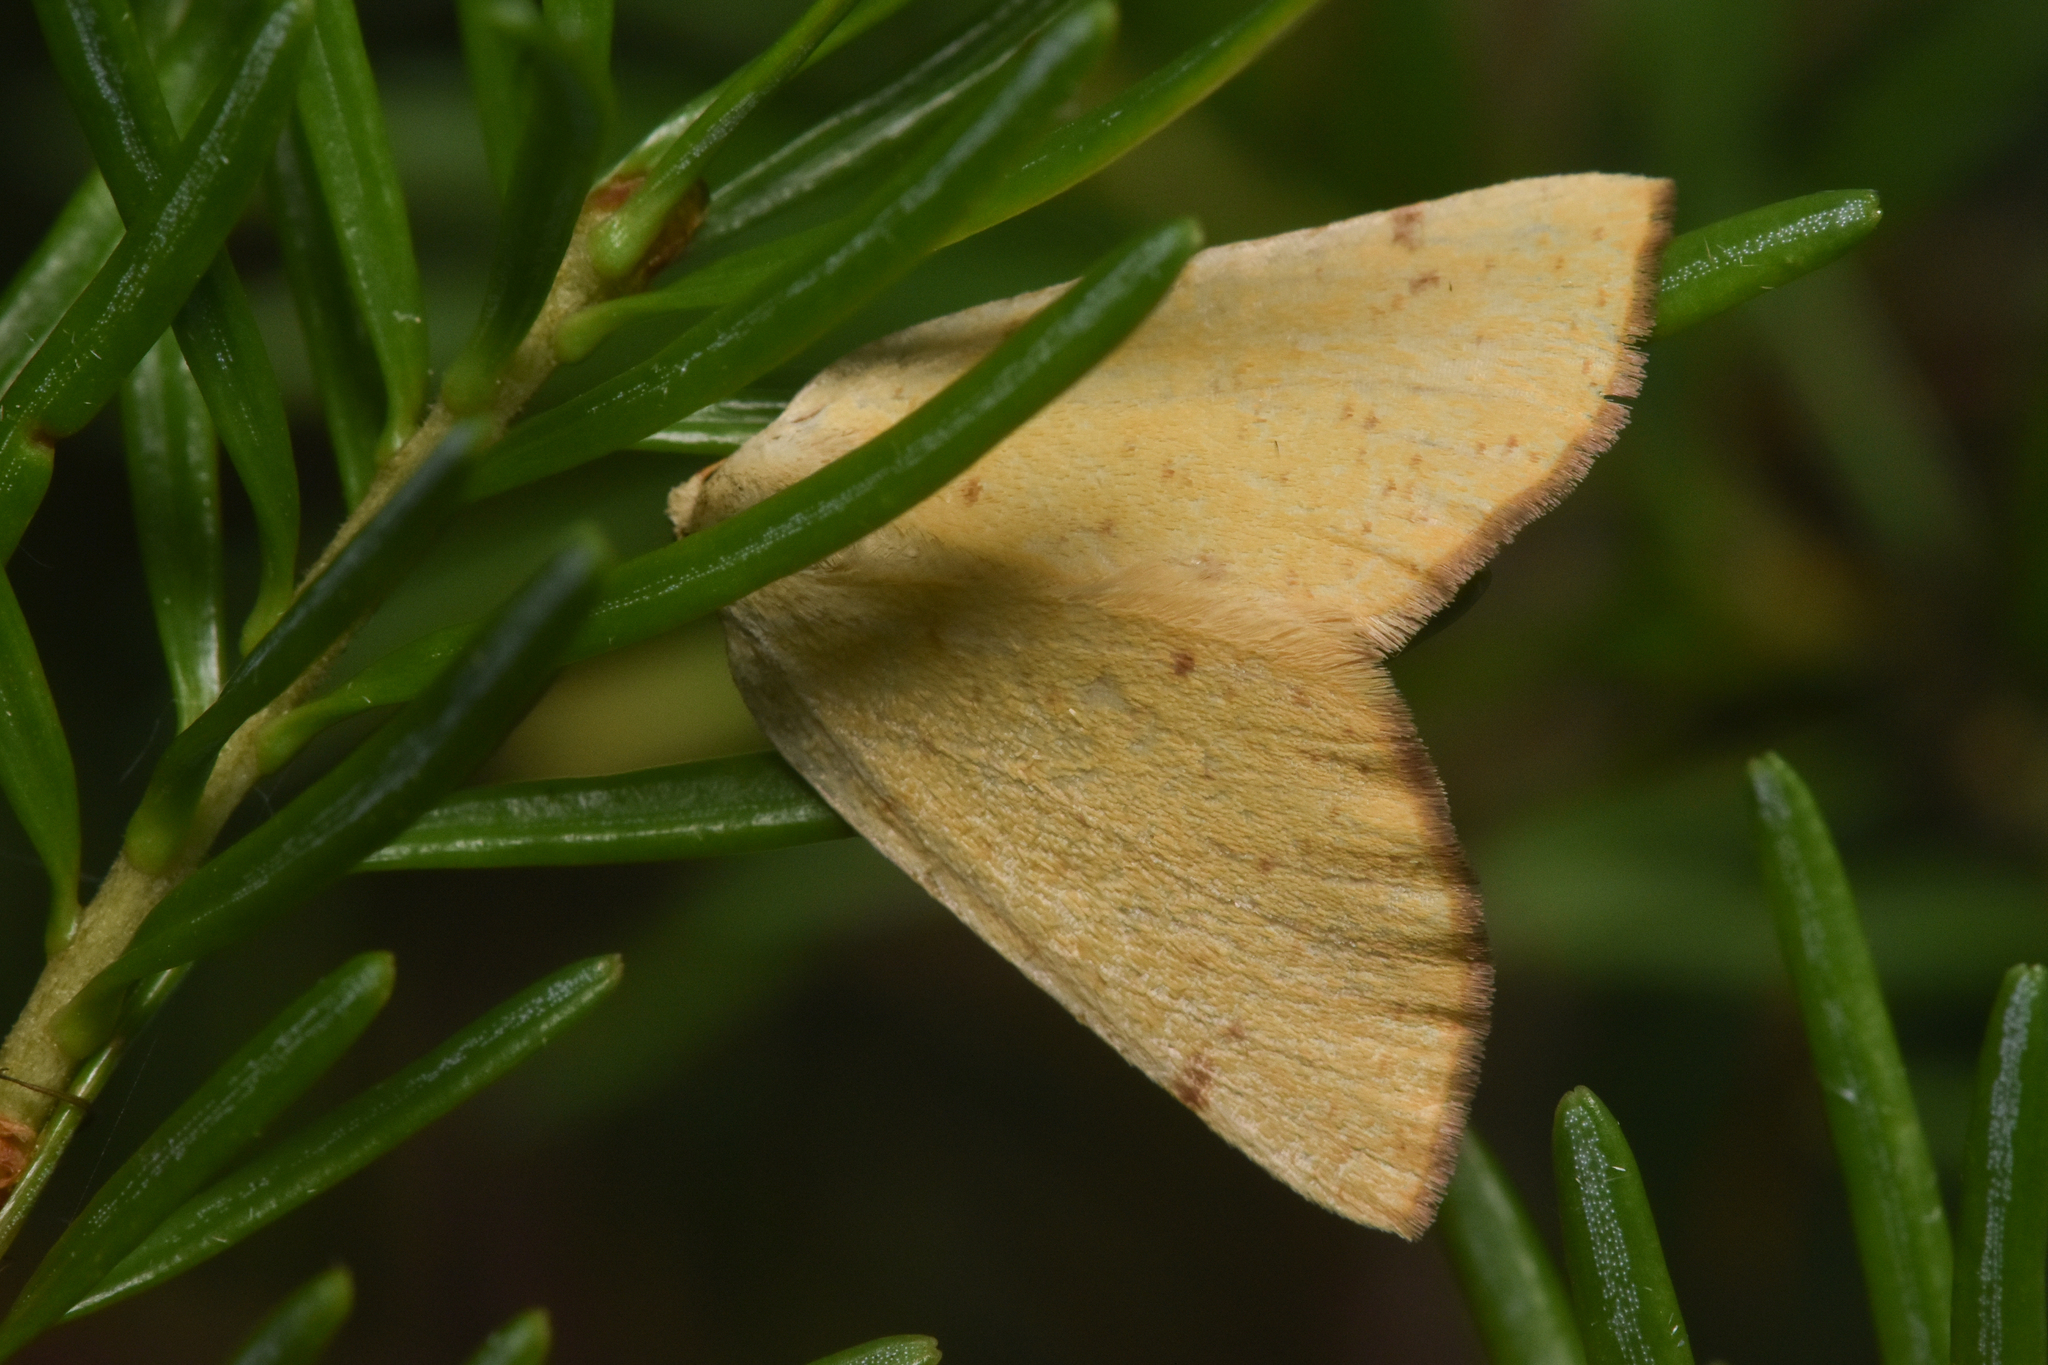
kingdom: Animalia
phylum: Arthropoda
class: Insecta
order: Lepidoptera
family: Geometridae
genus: Hesperumia
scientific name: Hesperumia sulphuraria
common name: Sulphur moth
